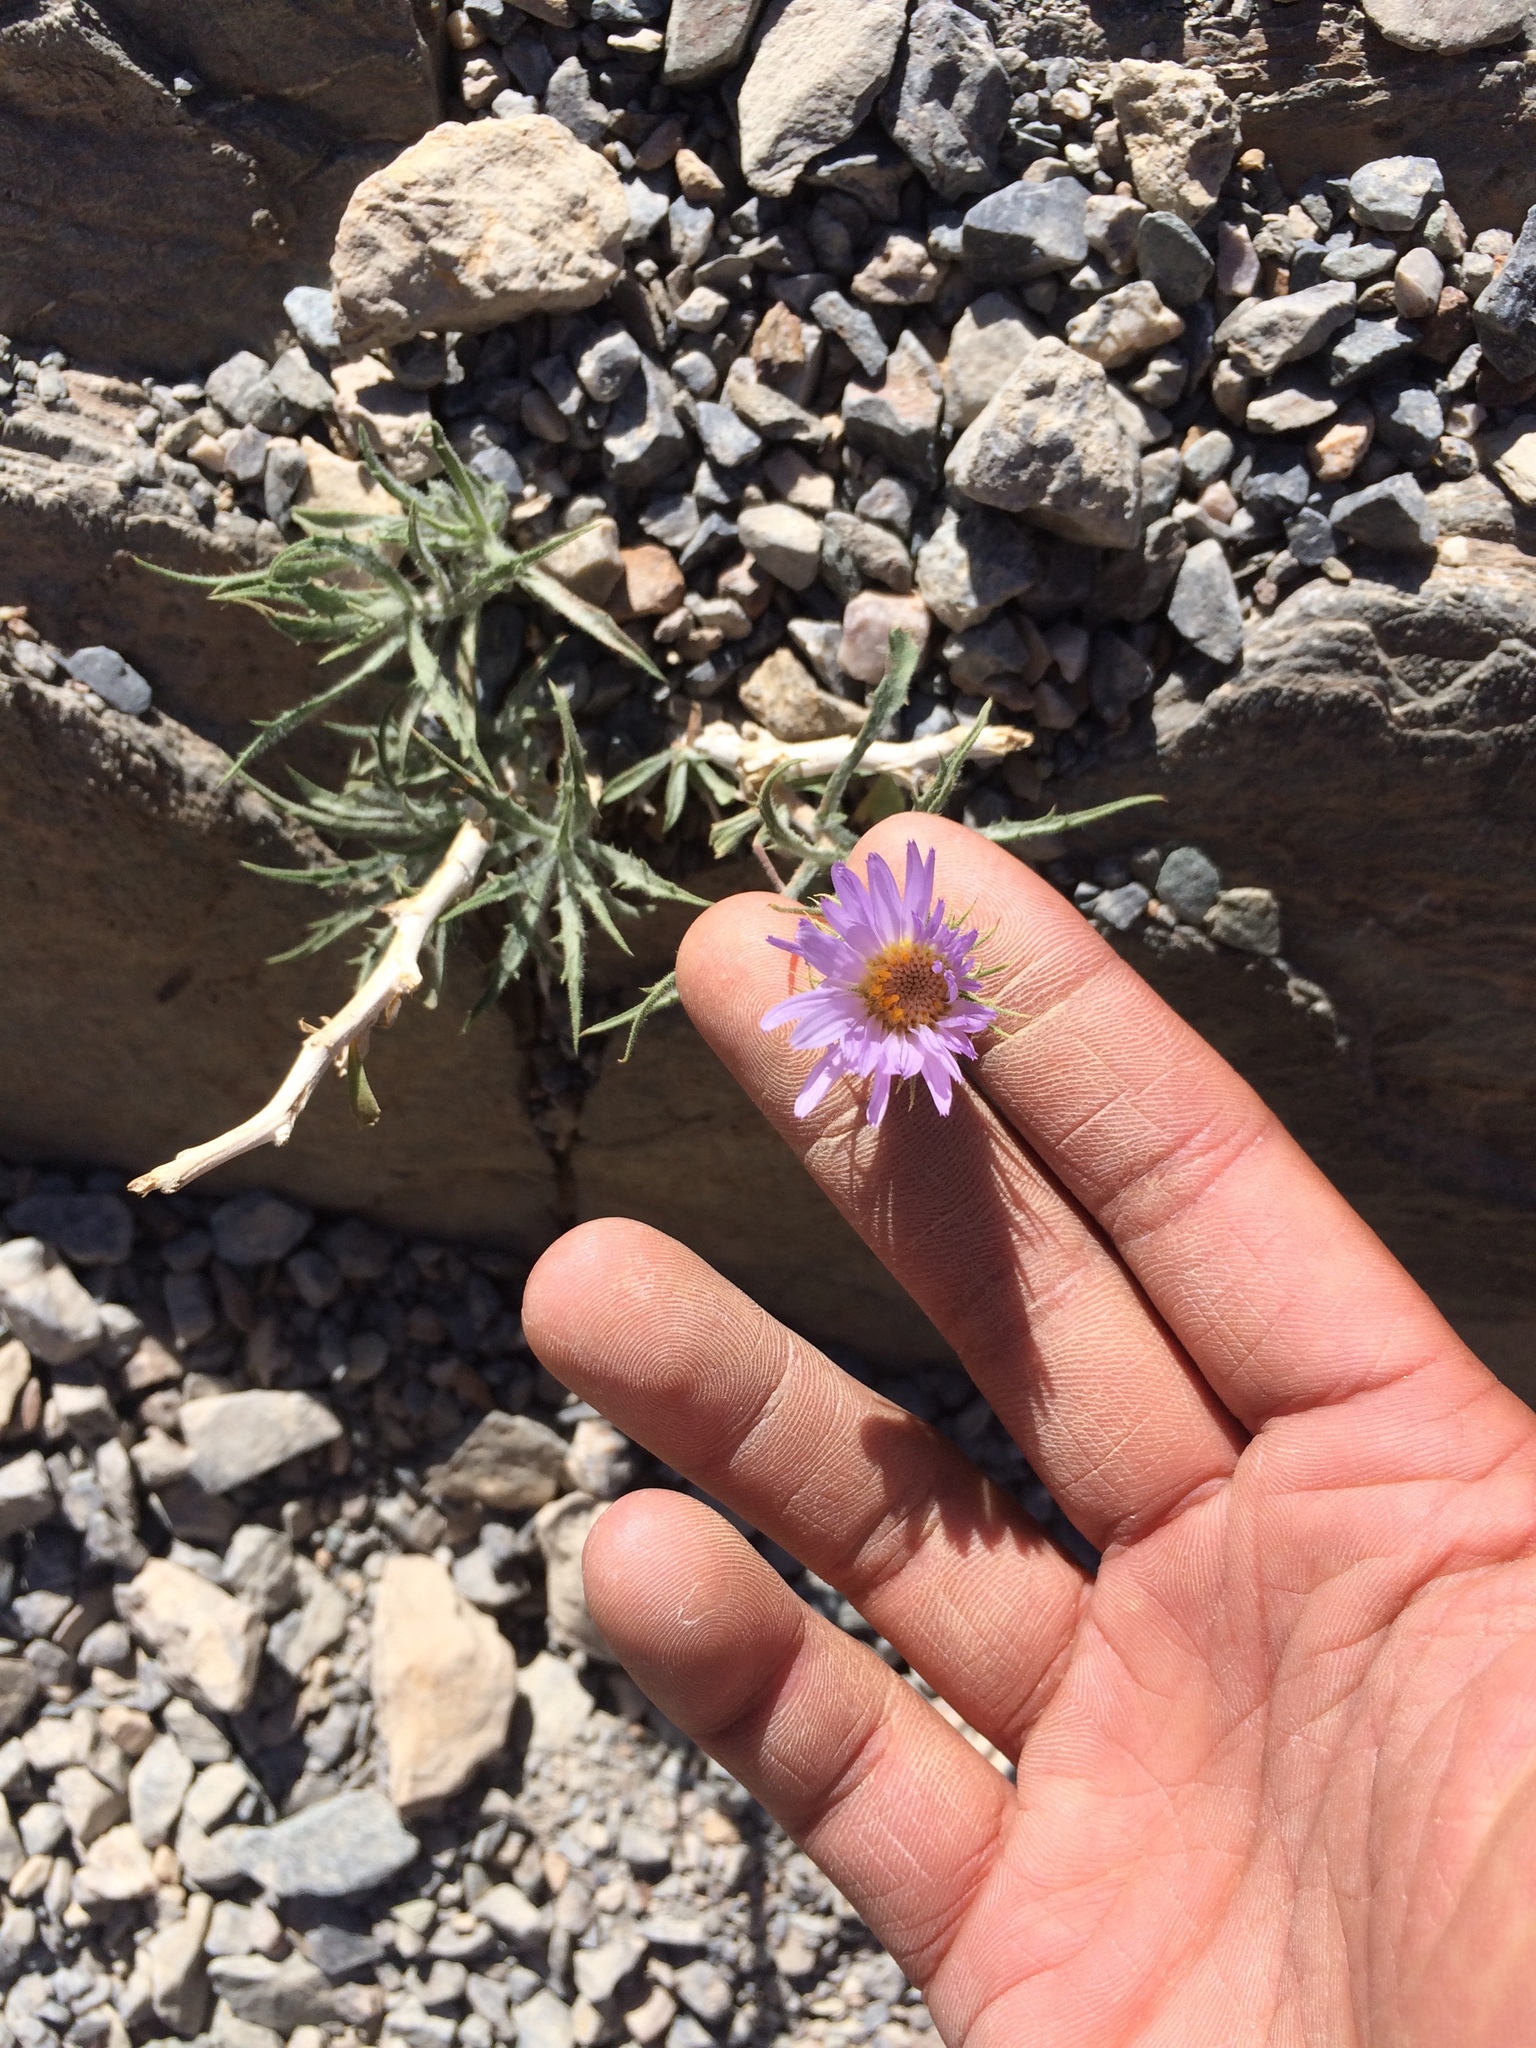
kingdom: Plantae
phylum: Tracheophyta
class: Magnoliopsida
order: Asterales
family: Asteraceae
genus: Xylorhiza
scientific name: Xylorhiza tortifolia
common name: Hurt-leaf woody-aster
